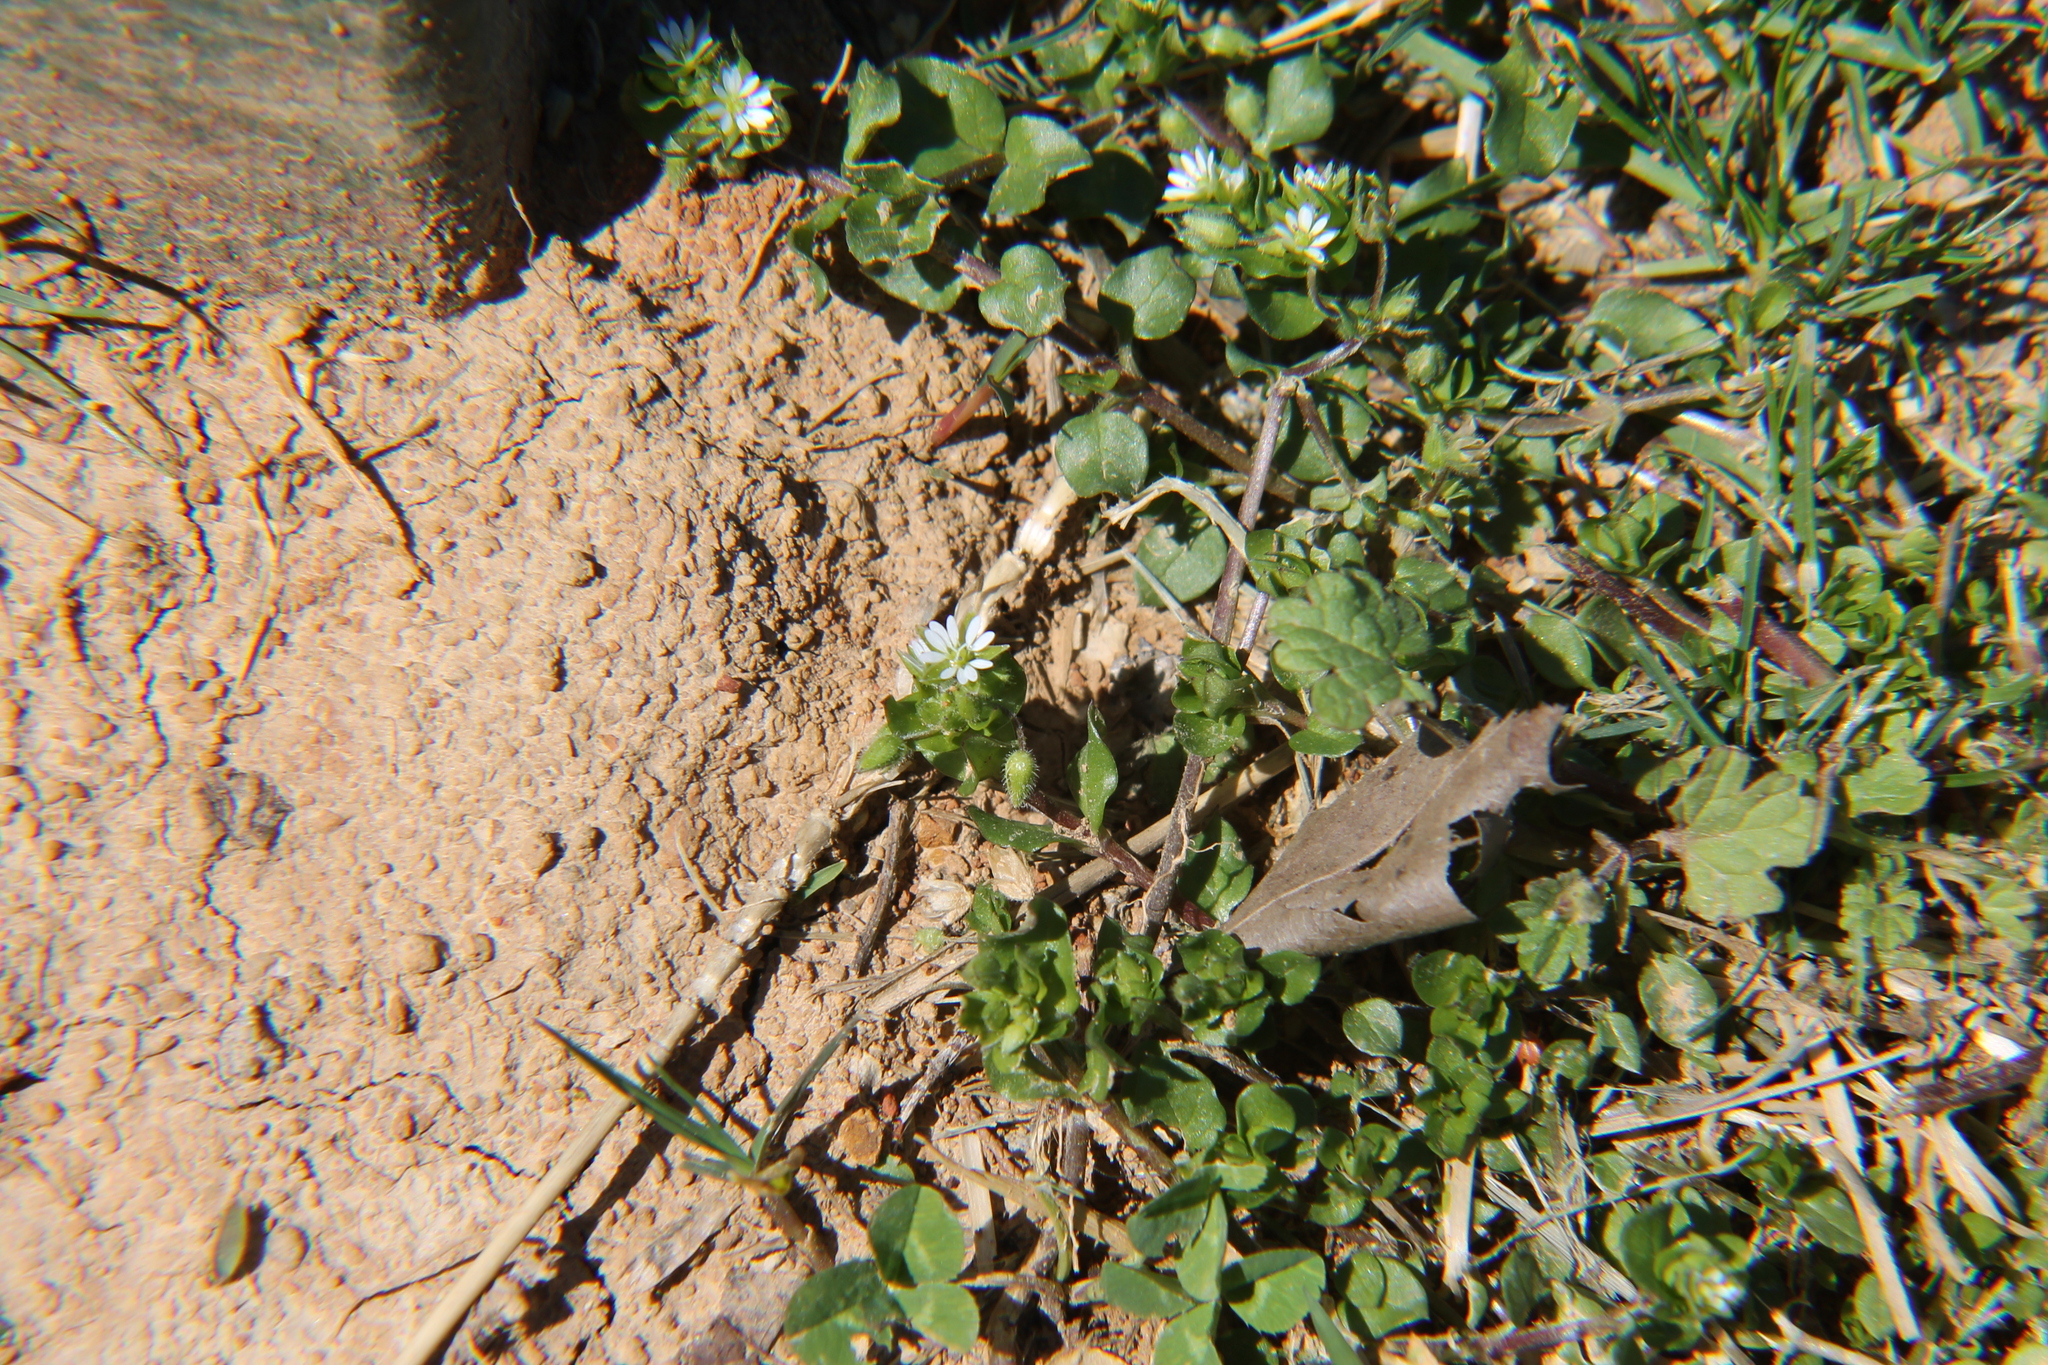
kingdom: Plantae
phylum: Tracheophyta
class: Magnoliopsida
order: Caryophyllales
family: Caryophyllaceae
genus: Stellaria
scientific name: Stellaria media
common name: Common chickweed
